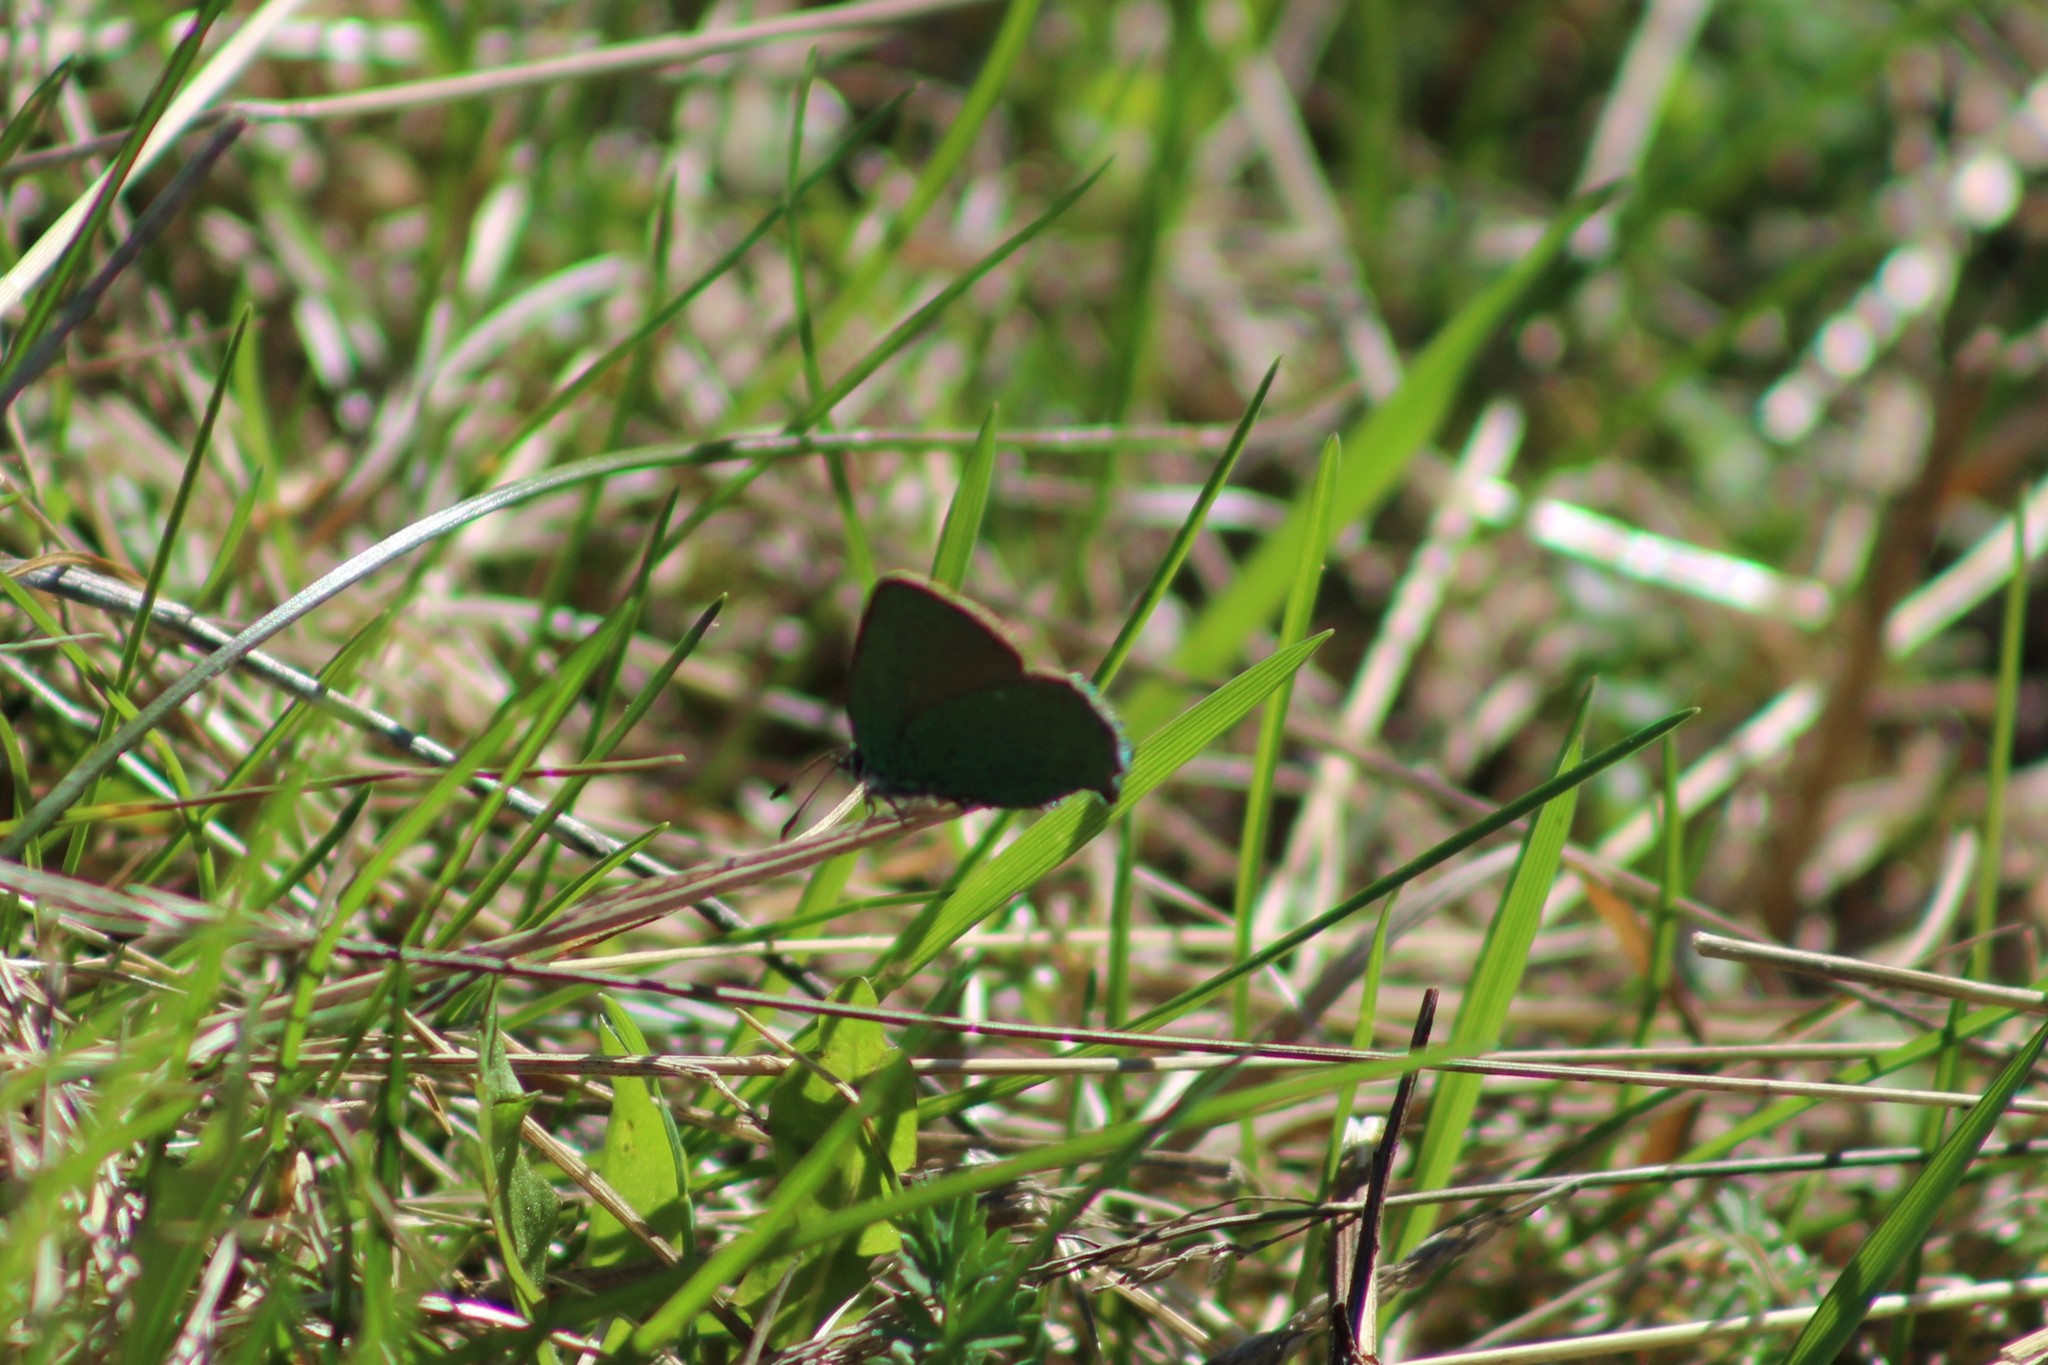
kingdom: Animalia
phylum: Arthropoda
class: Insecta
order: Lepidoptera
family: Lycaenidae
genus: Callophrys
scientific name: Callophrys rubi
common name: Green hairstreak
